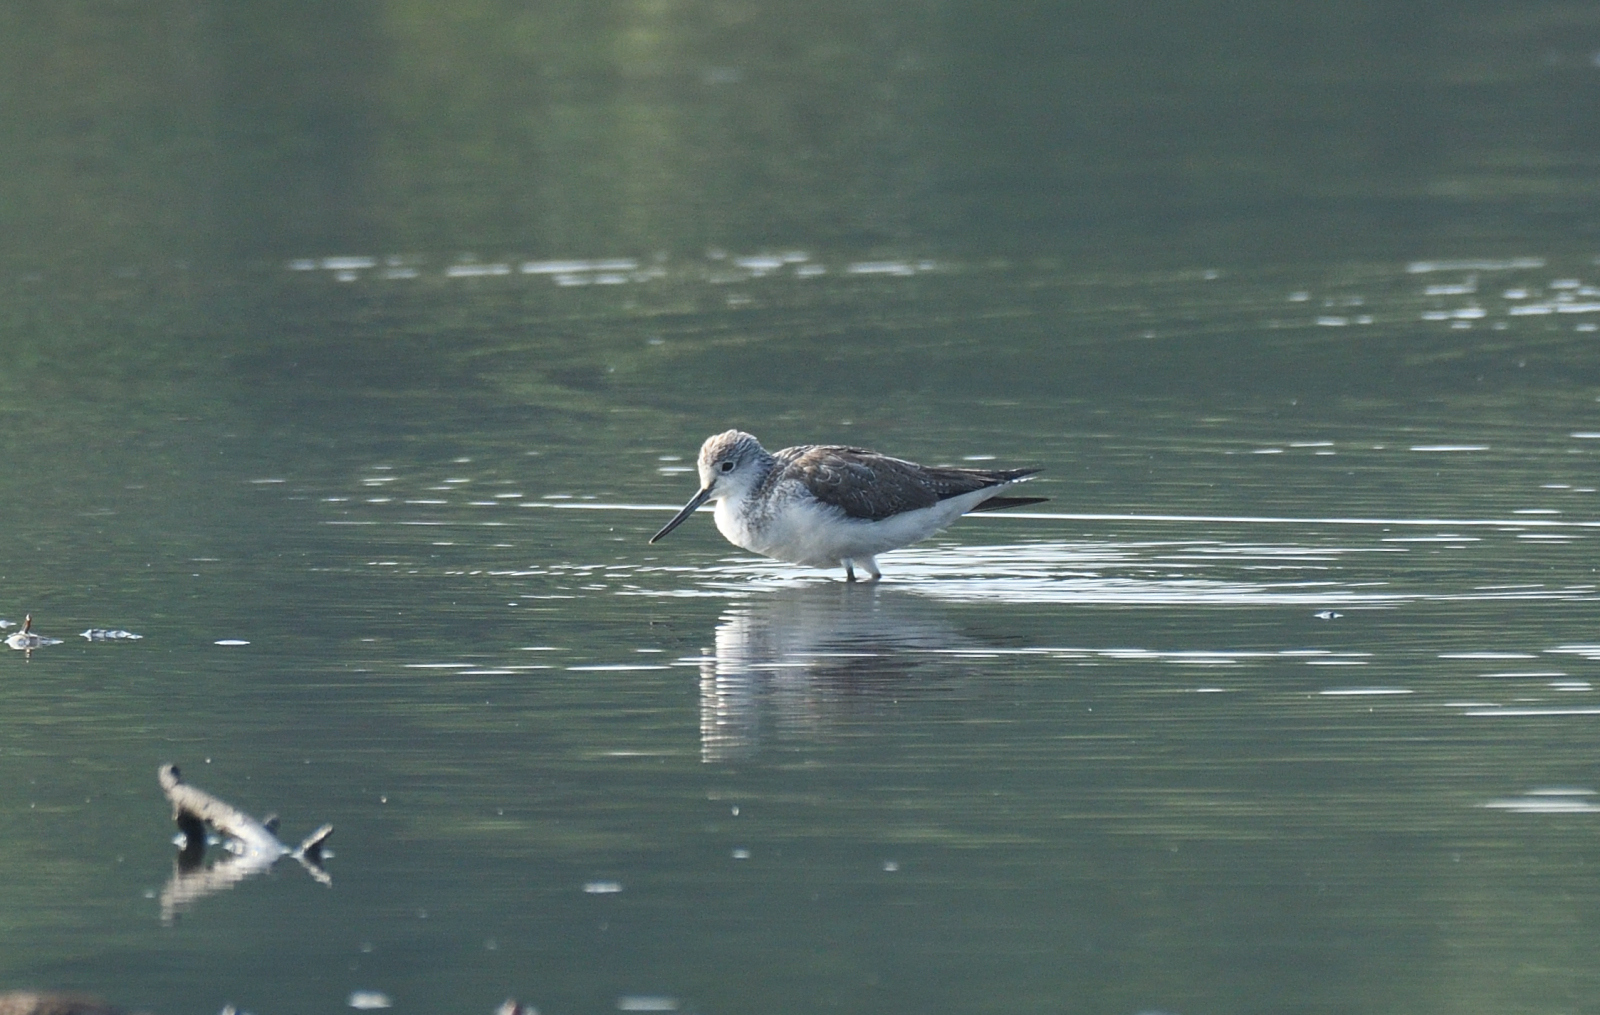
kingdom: Animalia
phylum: Chordata
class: Aves
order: Charadriiformes
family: Scolopacidae
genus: Tringa
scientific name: Tringa nebularia
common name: Common greenshank
